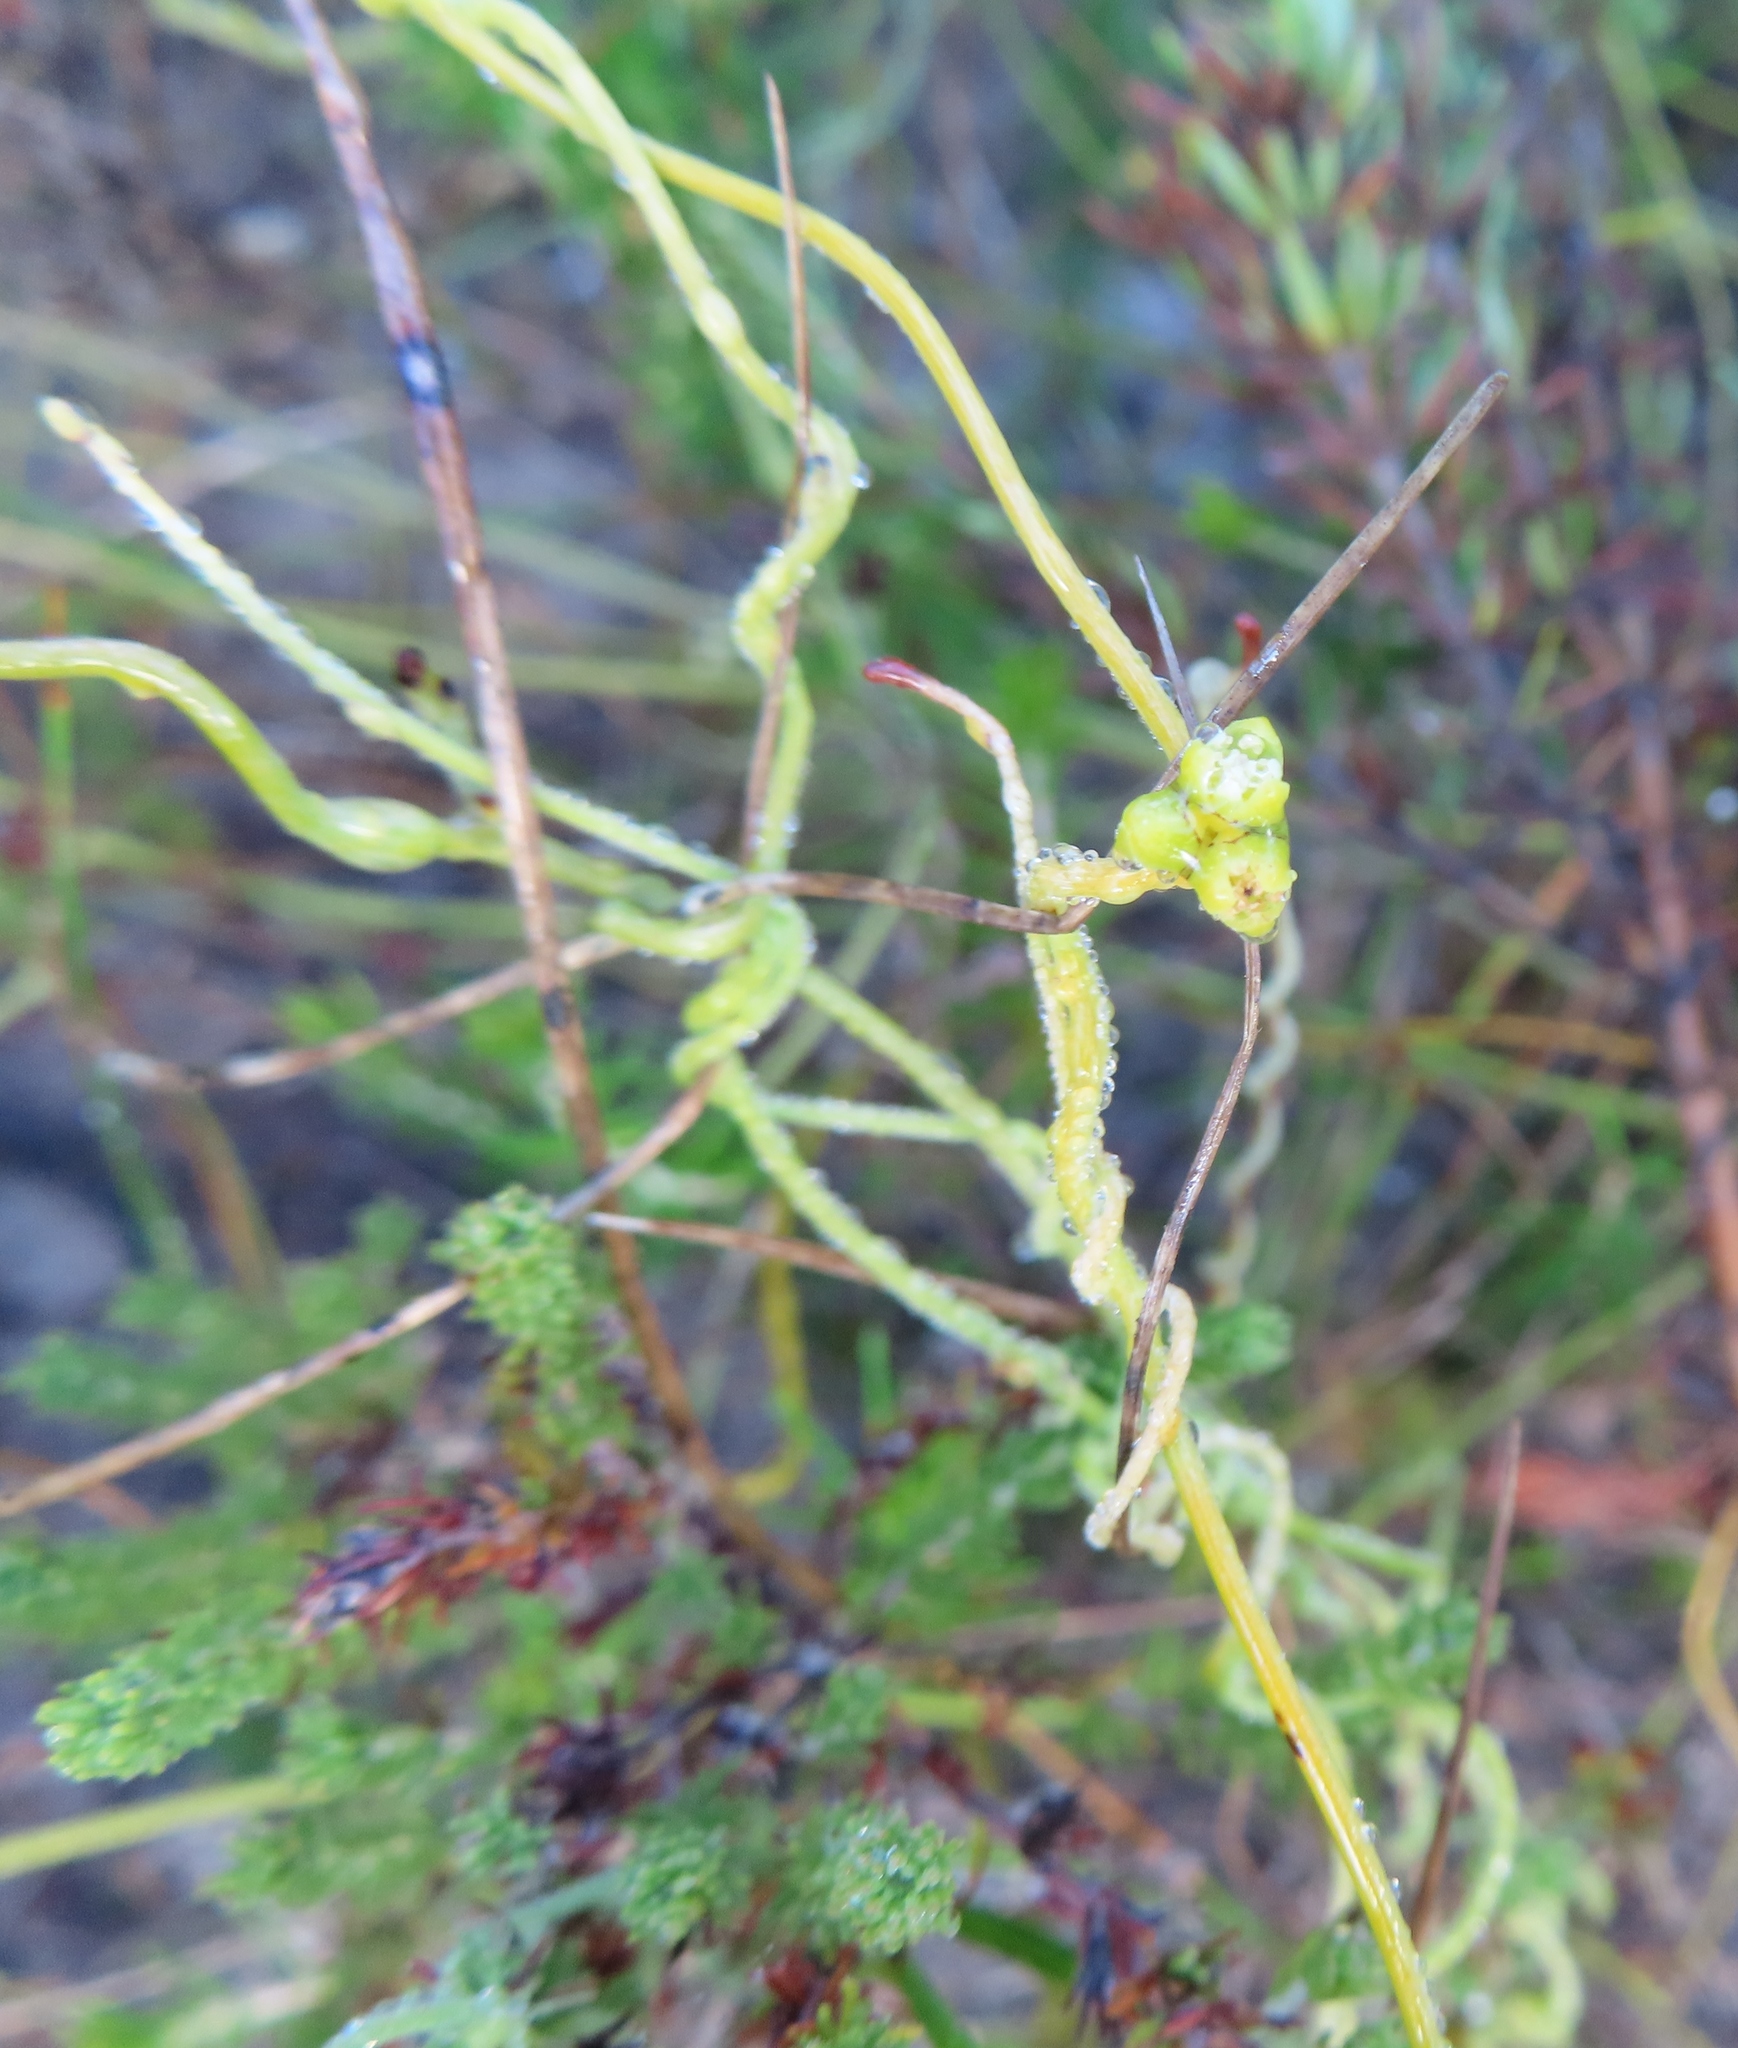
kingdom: Plantae
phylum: Tracheophyta
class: Magnoliopsida
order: Laurales
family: Lauraceae
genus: Cassytha
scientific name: Cassytha ciliolata
